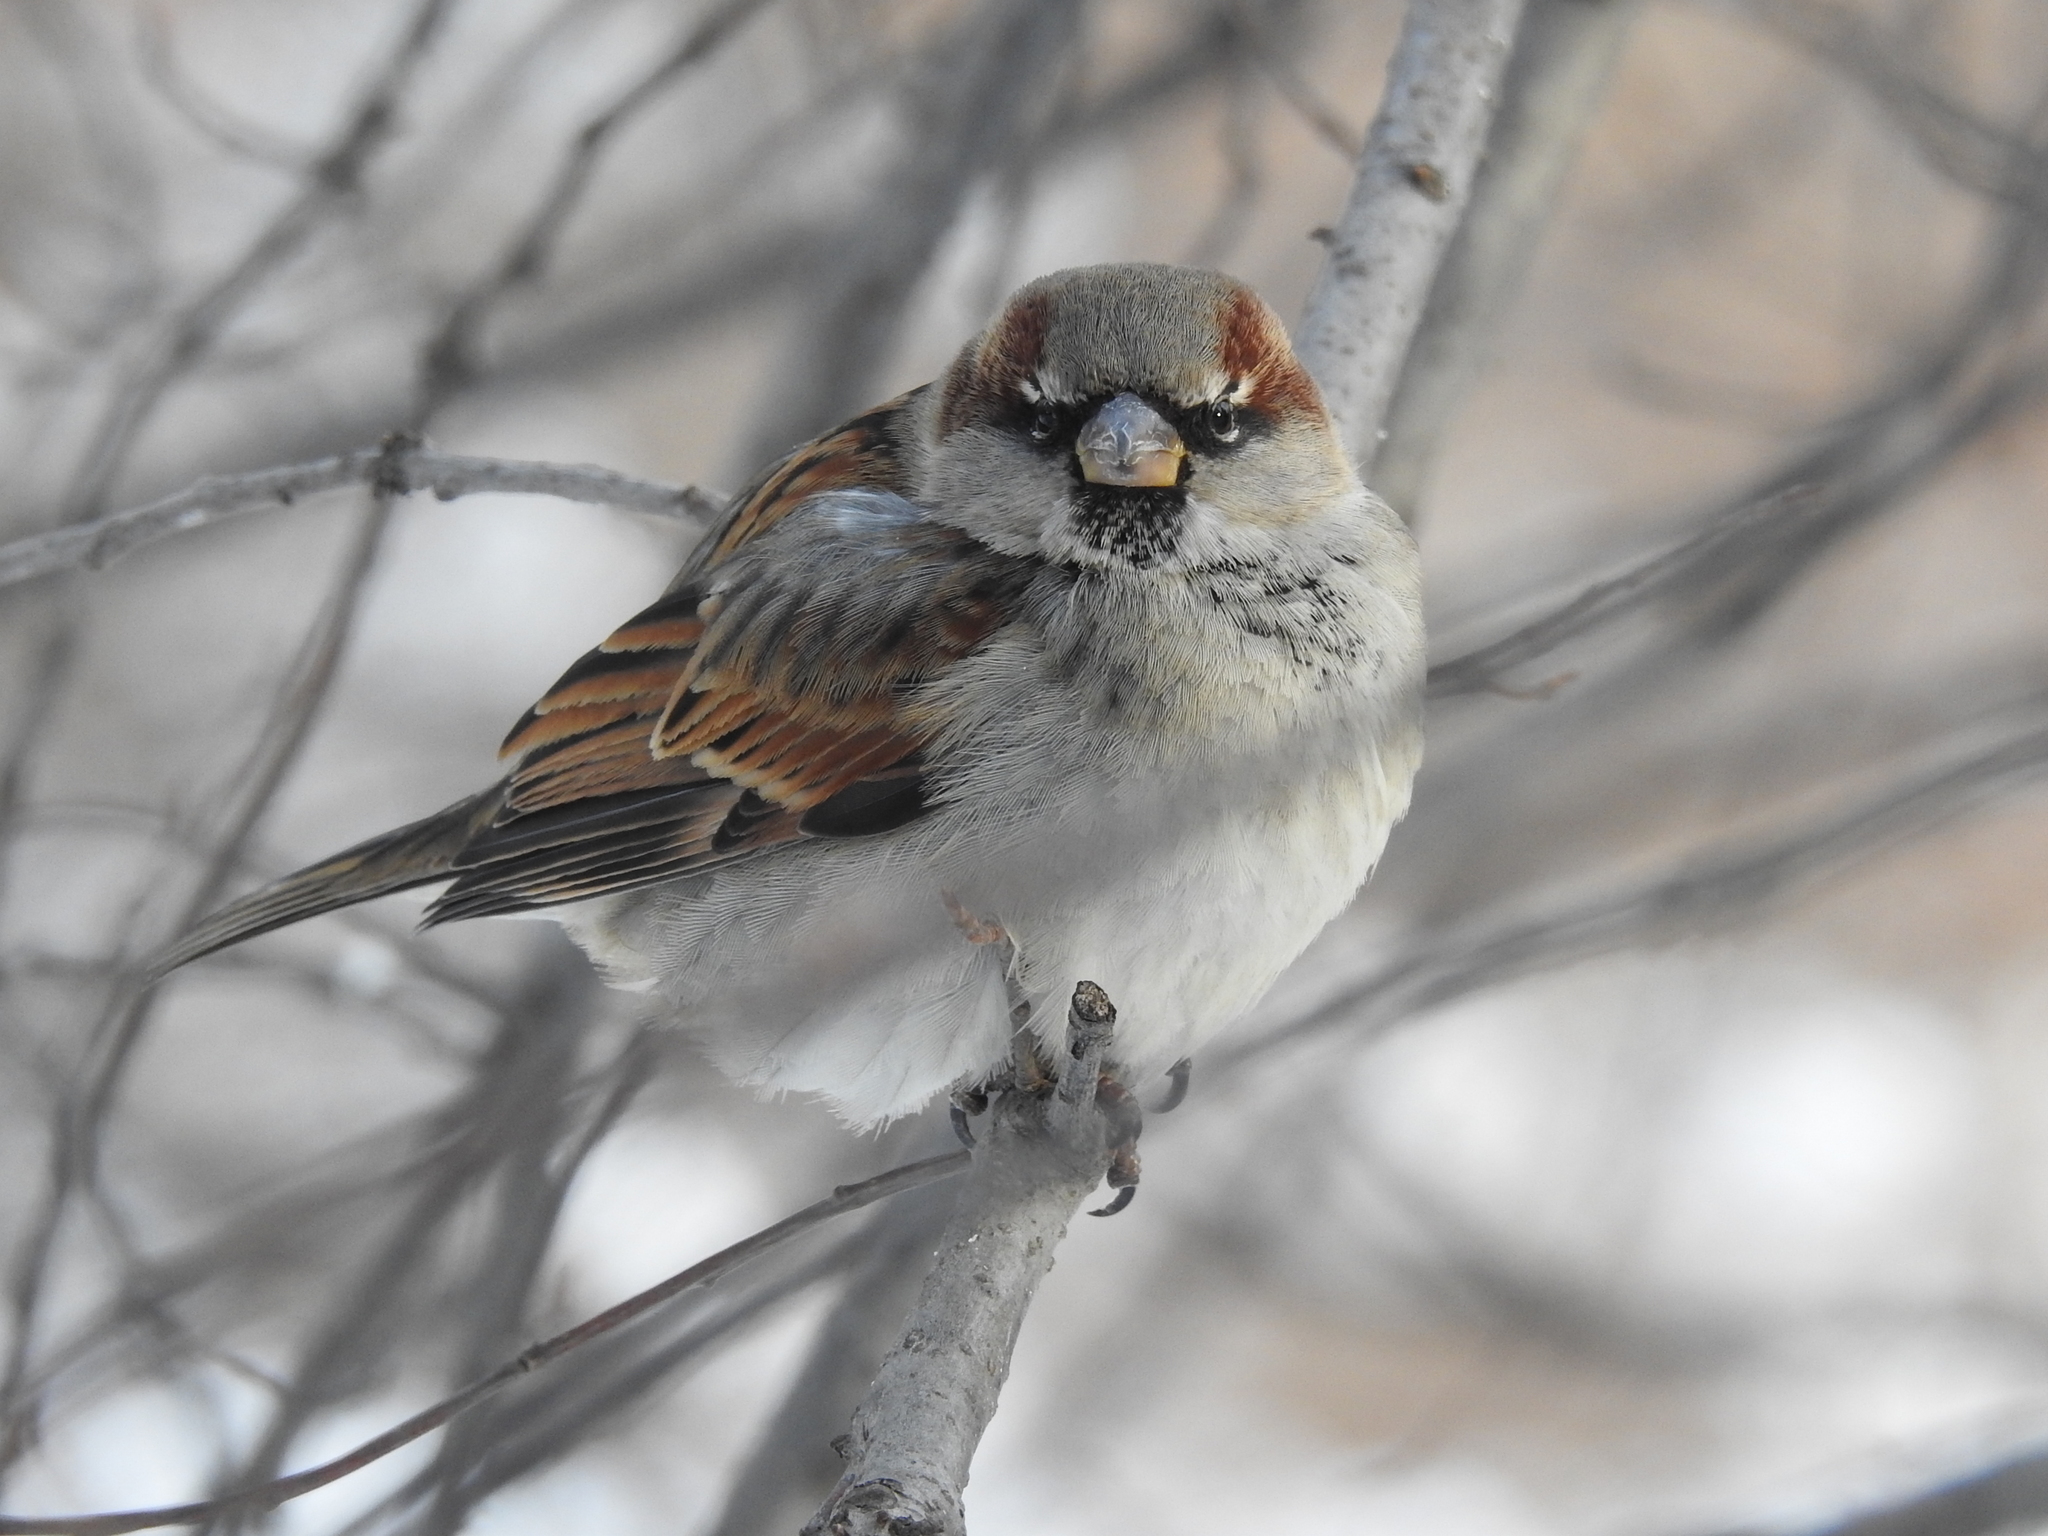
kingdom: Animalia
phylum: Chordata
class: Aves
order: Passeriformes
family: Passeridae
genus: Passer
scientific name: Passer domesticus
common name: House sparrow
